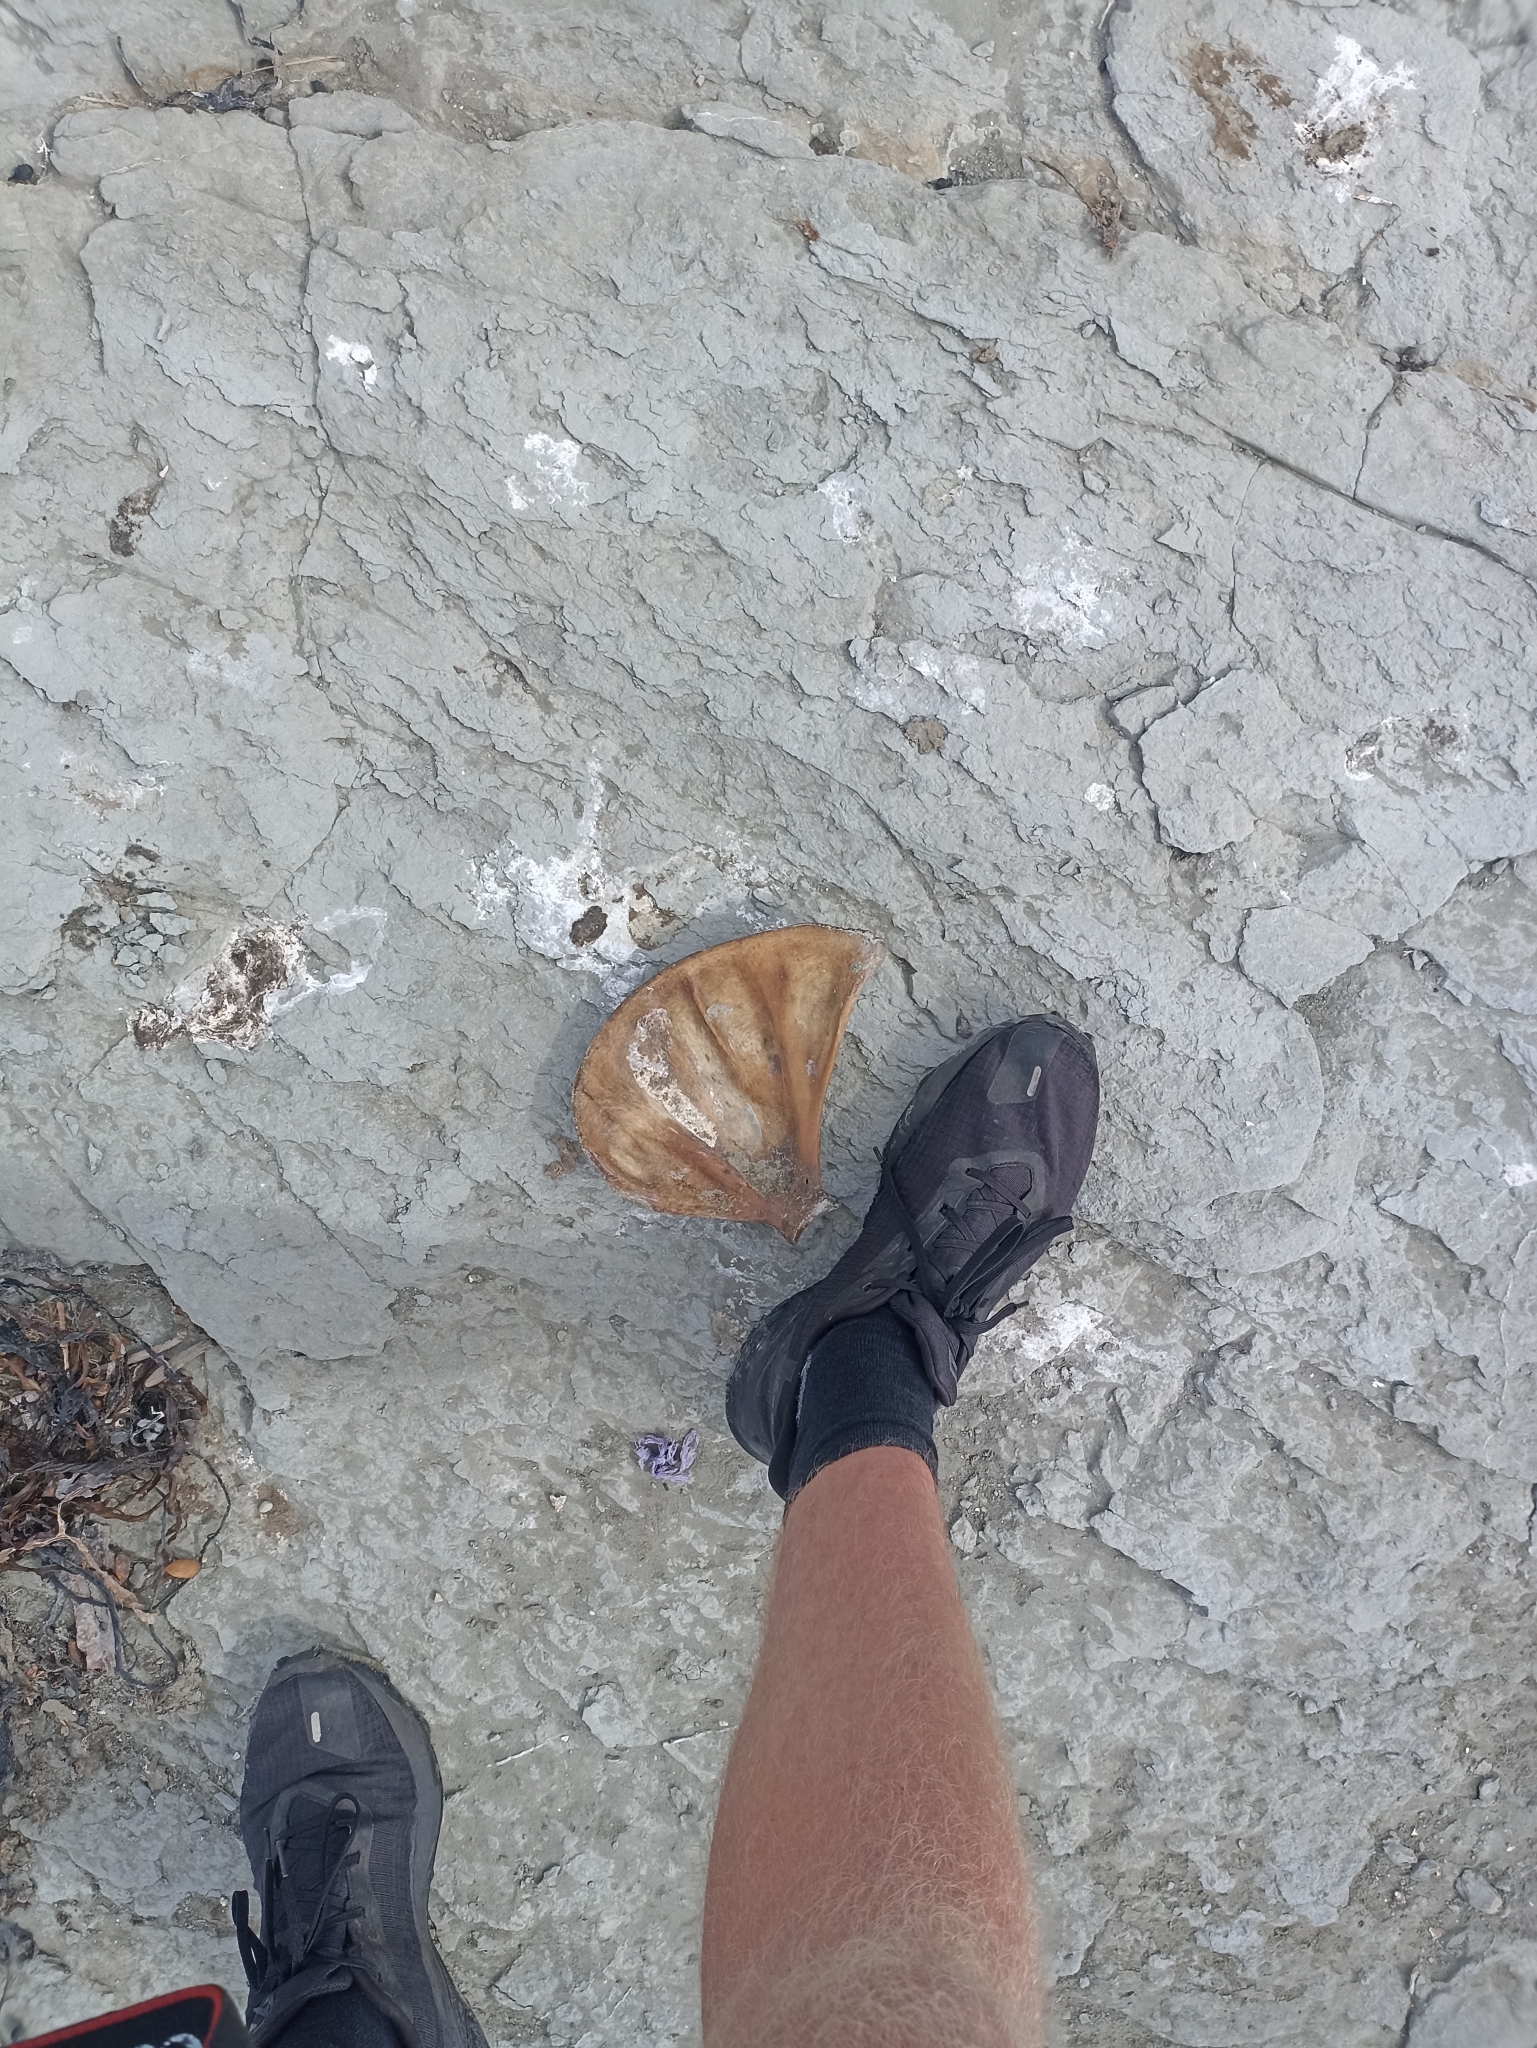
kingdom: Animalia
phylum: Chordata
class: Mammalia
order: Carnivora
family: Otariidae
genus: Arctocephalus
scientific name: Arctocephalus forsteri
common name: New zealand fur seal
